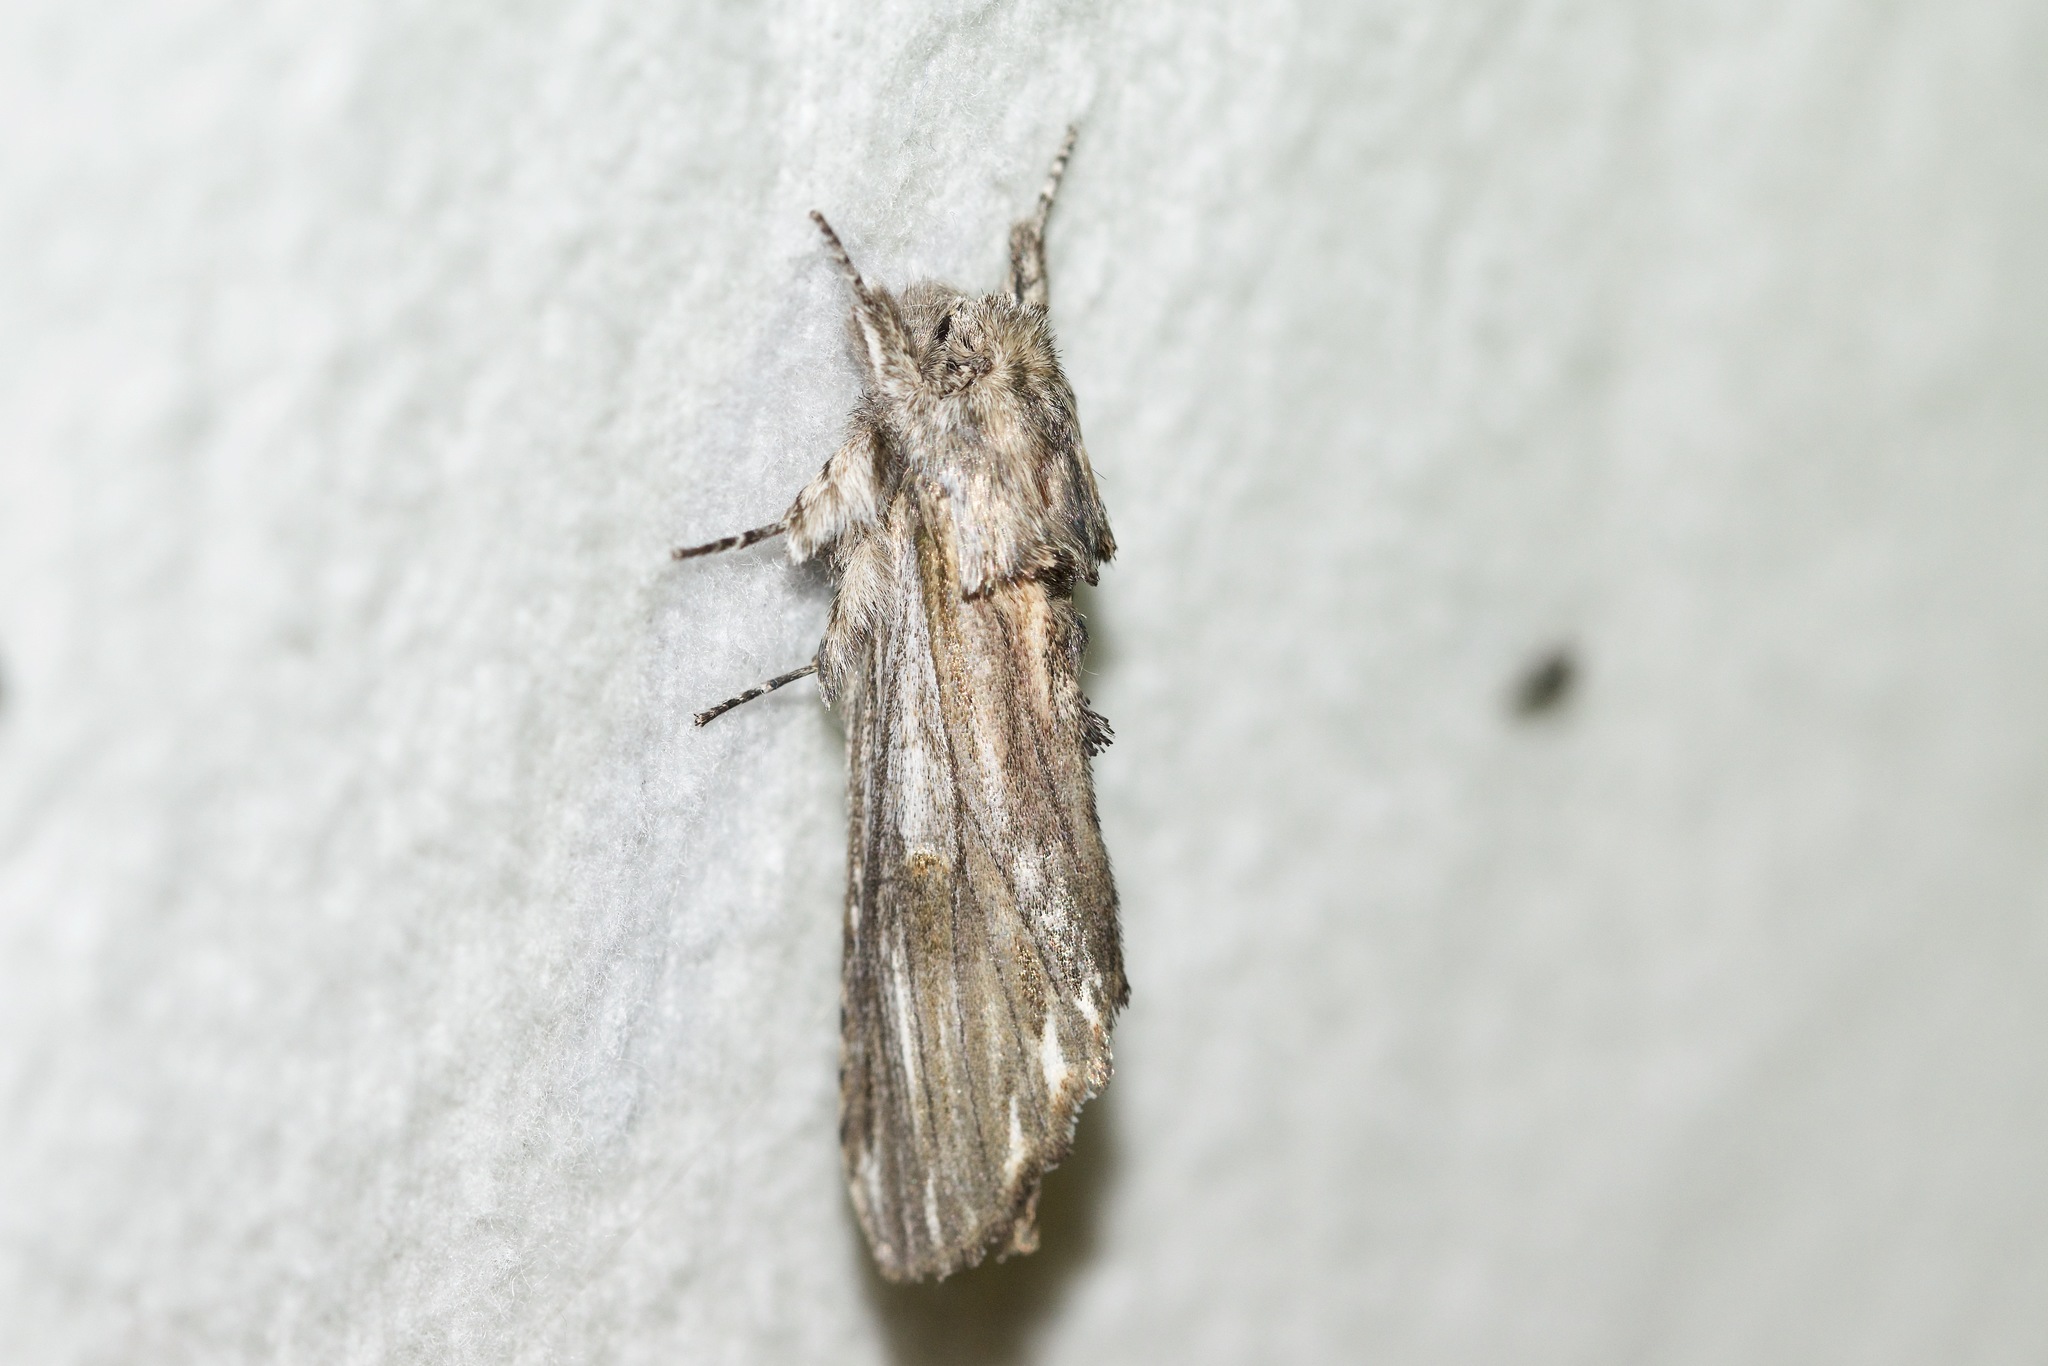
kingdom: Animalia
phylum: Arthropoda
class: Insecta
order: Lepidoptera
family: Notodontidae
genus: Oligocentria
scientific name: Oligocentria Ianassa lignicolor
